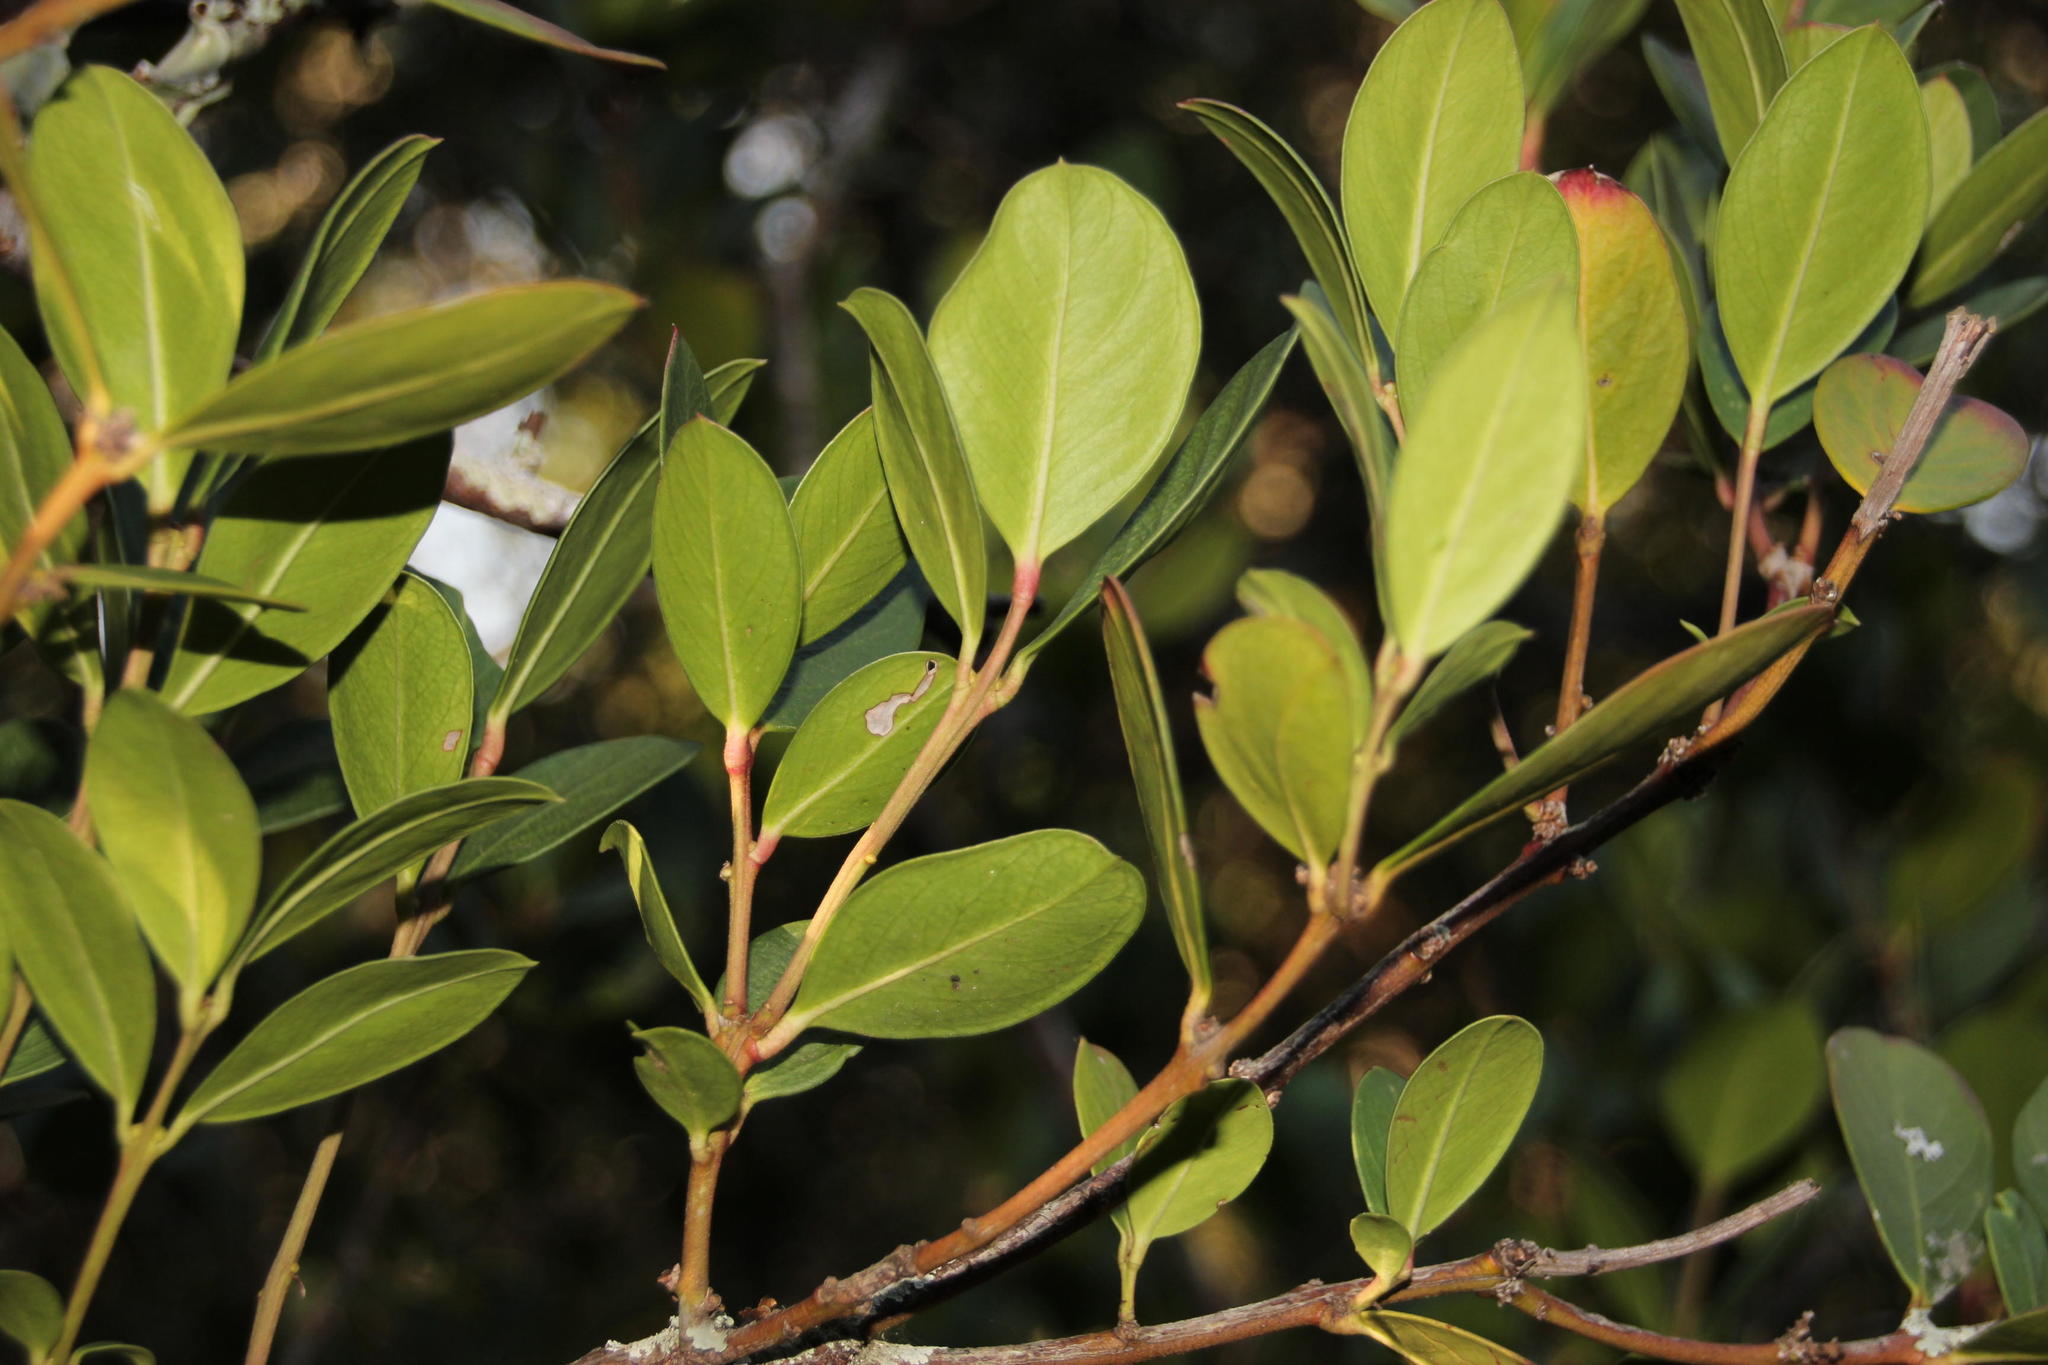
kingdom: Plantae
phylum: Tracheophyta
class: Magnoliopsida
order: Gentianales
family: Apocynaceae
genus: Acokanthera
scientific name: Acokanthera oppositifolia
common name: Bushman's-poison
